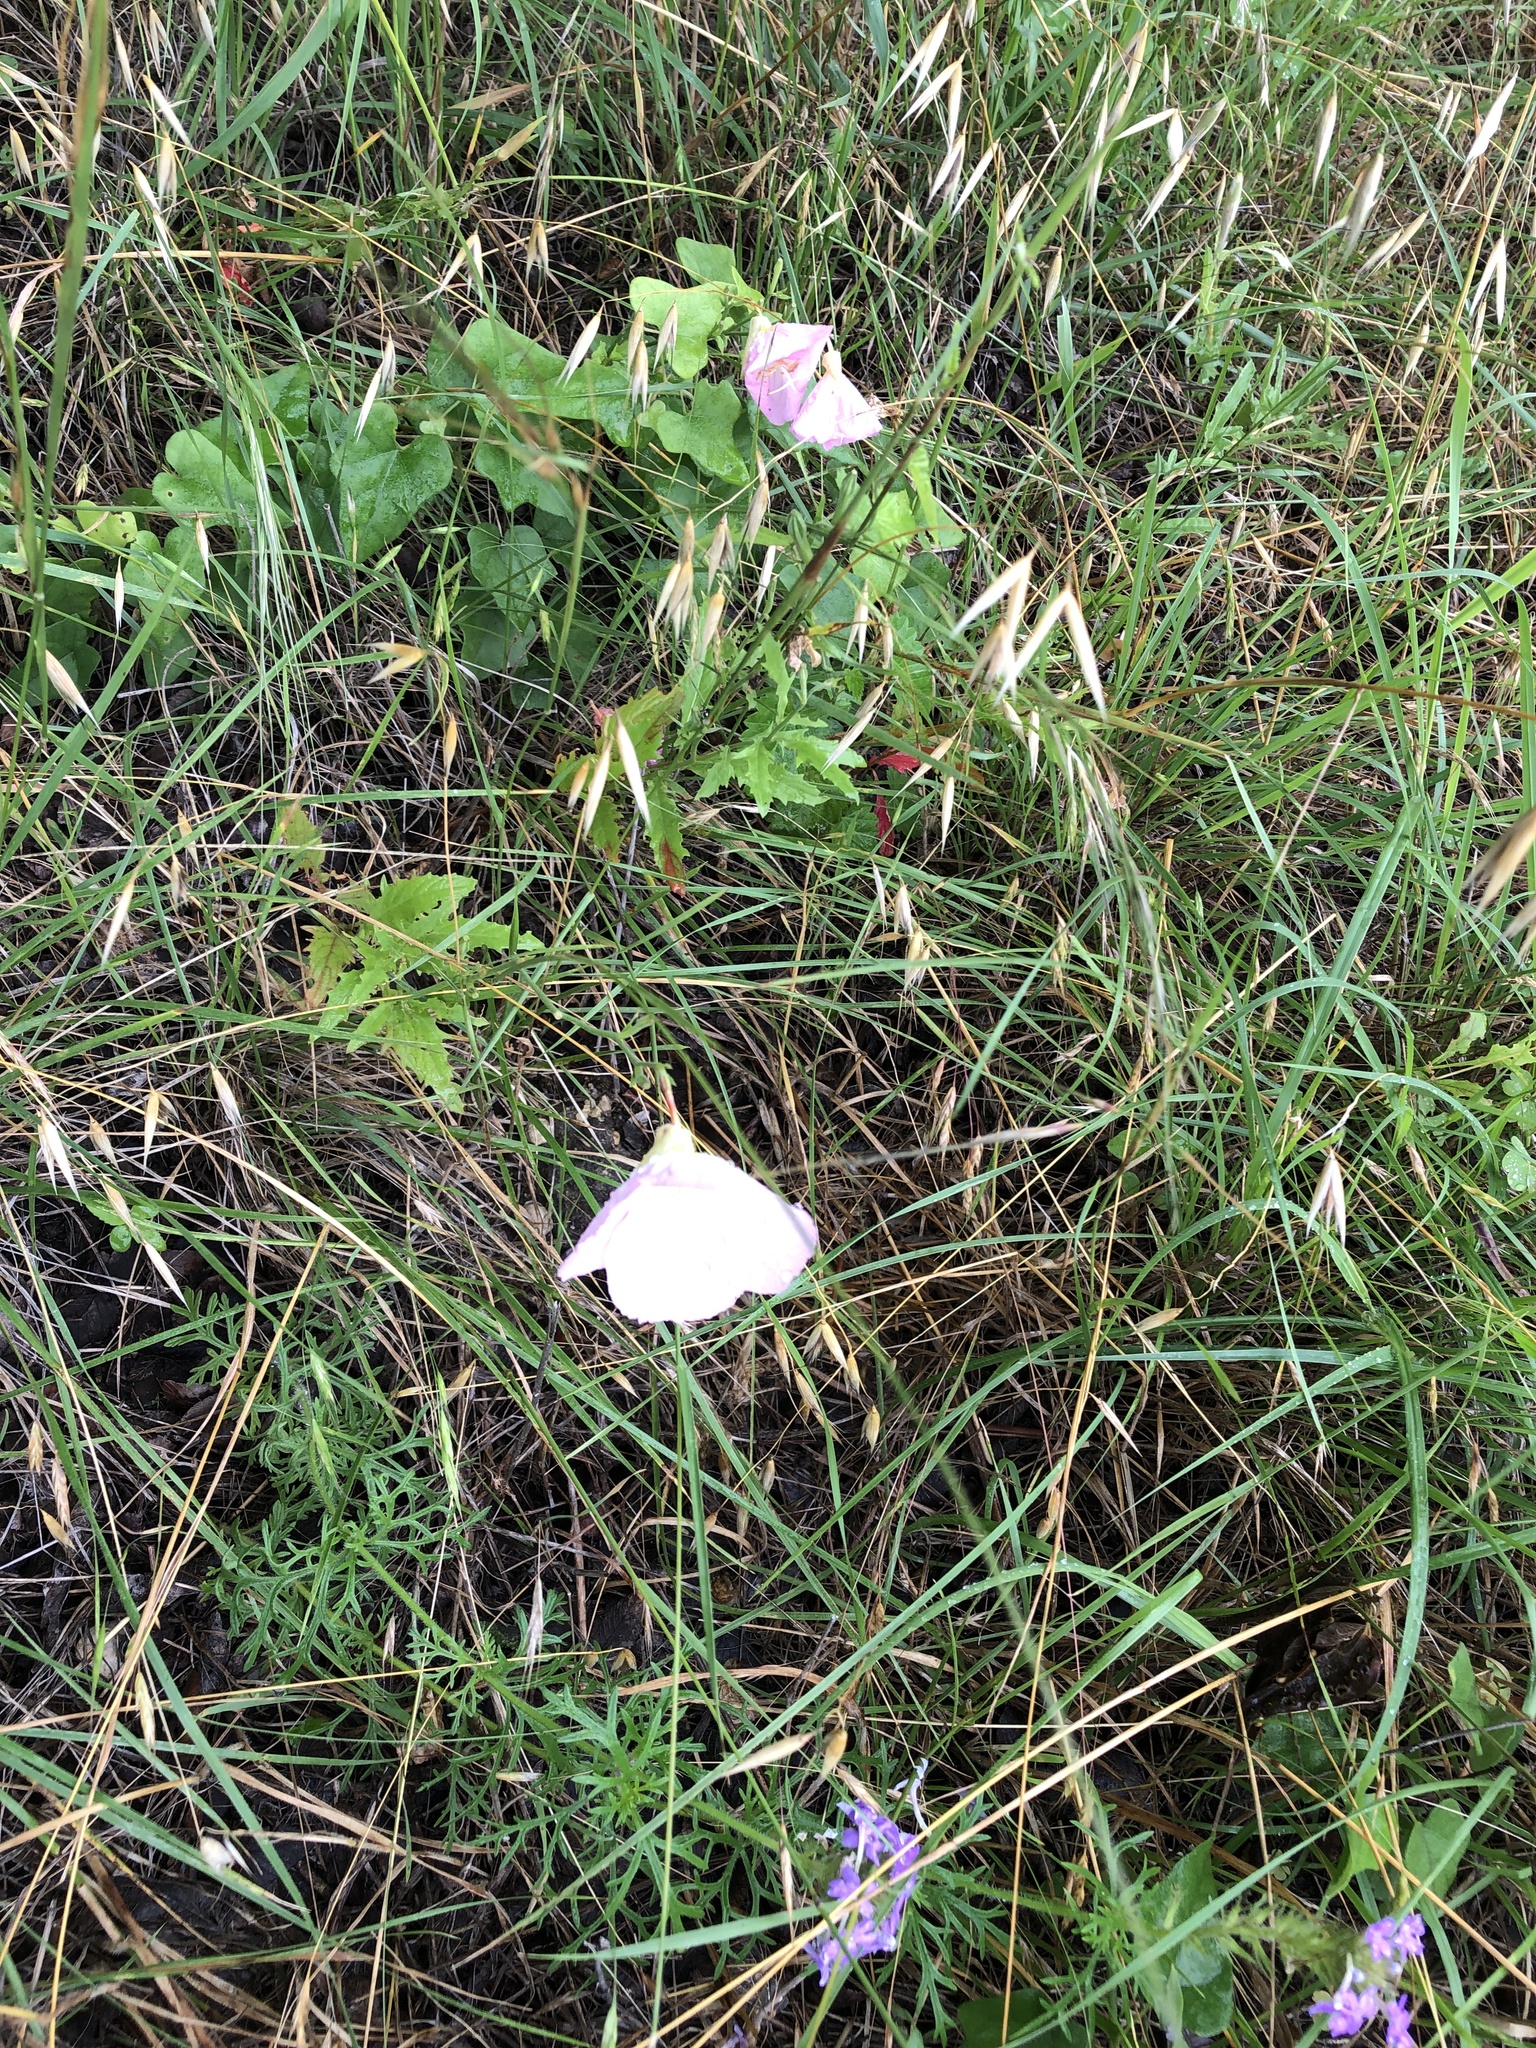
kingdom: Plantae
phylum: Tracheophyta
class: Magnoliopsida
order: Myrtales
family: Onagraceae
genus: Oenothera
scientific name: Oenothera speciosa
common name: White evening-primrose
